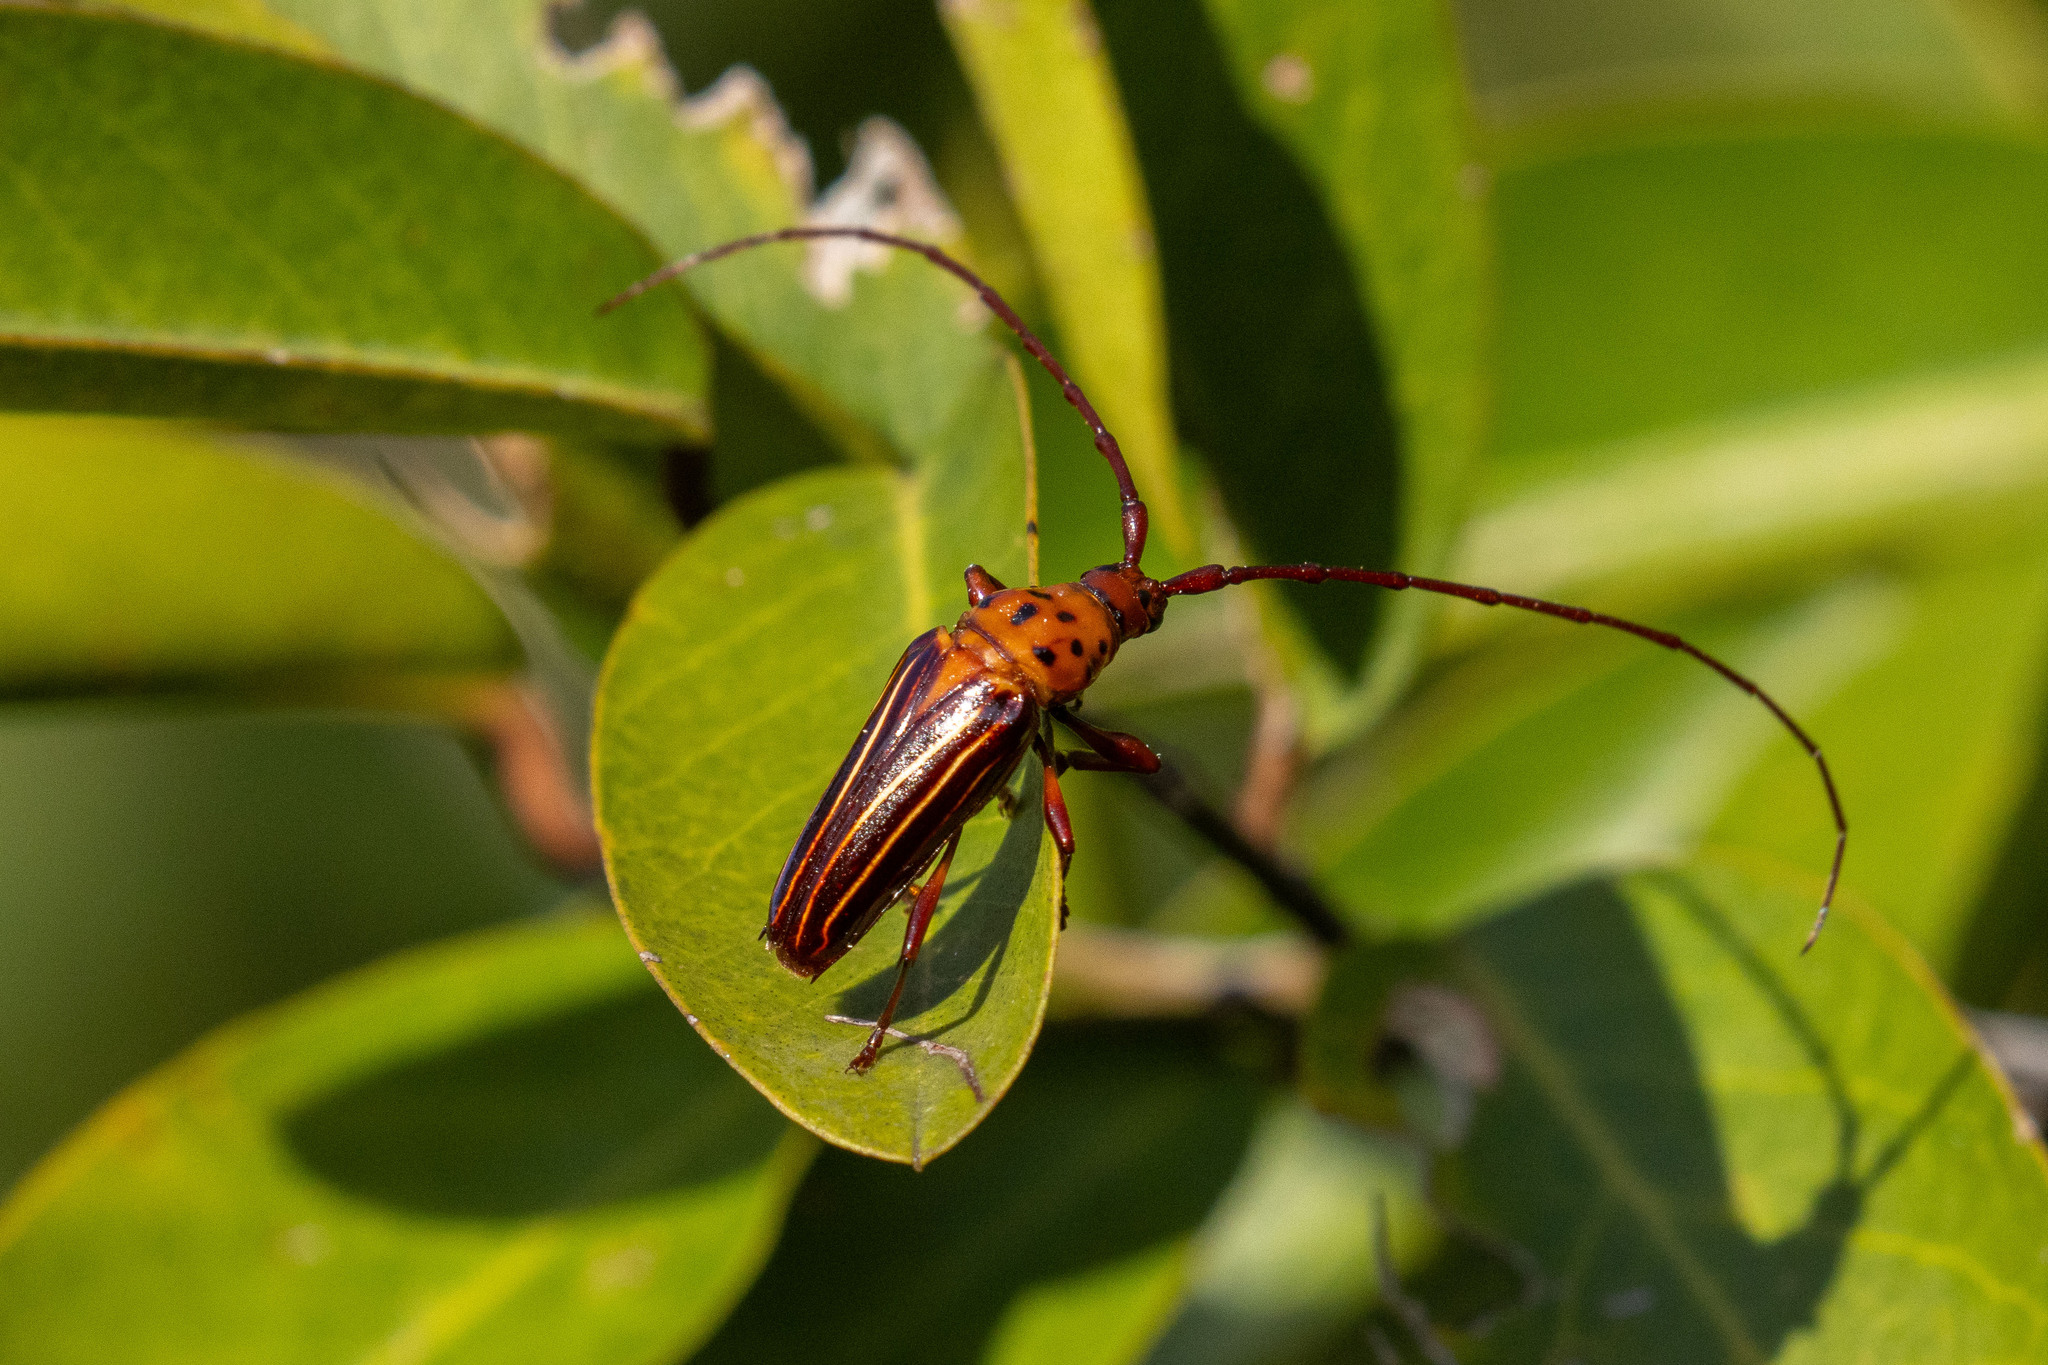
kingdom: Animalia
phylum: Arthropoda
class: Insecta
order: Coleoptera
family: Cerambycidae
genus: Oxymerus
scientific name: Oxymerus aculeatus
